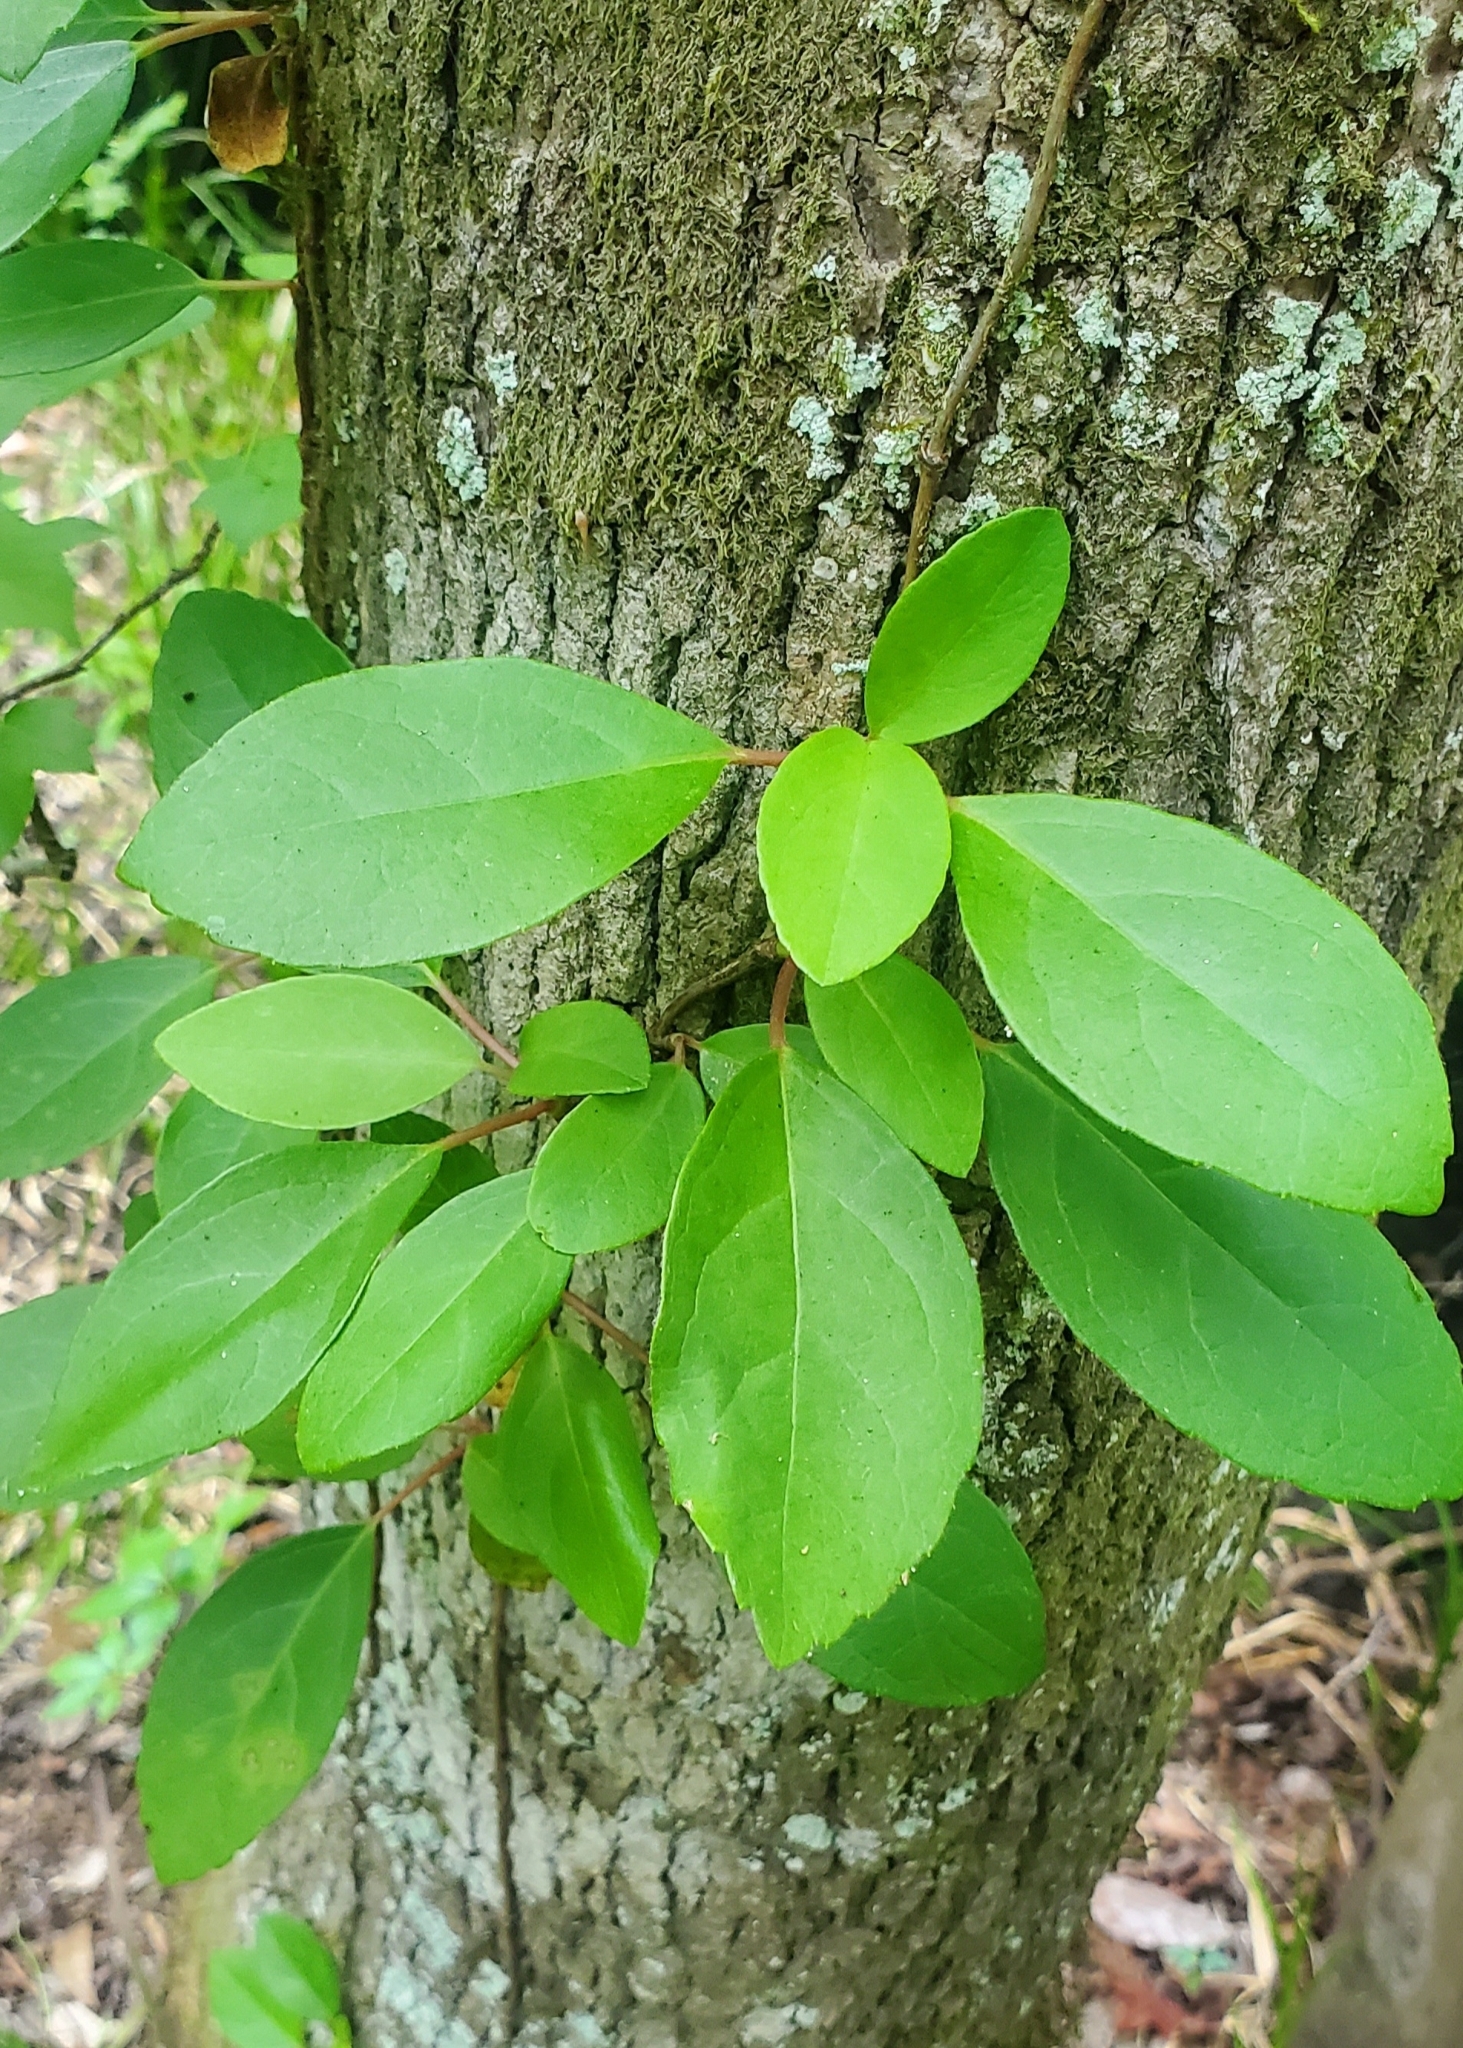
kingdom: Plantae
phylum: Tracheophyta
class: Magnoliopsida
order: Cornales
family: Hydrangeaceae
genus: Hydrangea
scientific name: Hydrangea barbara
